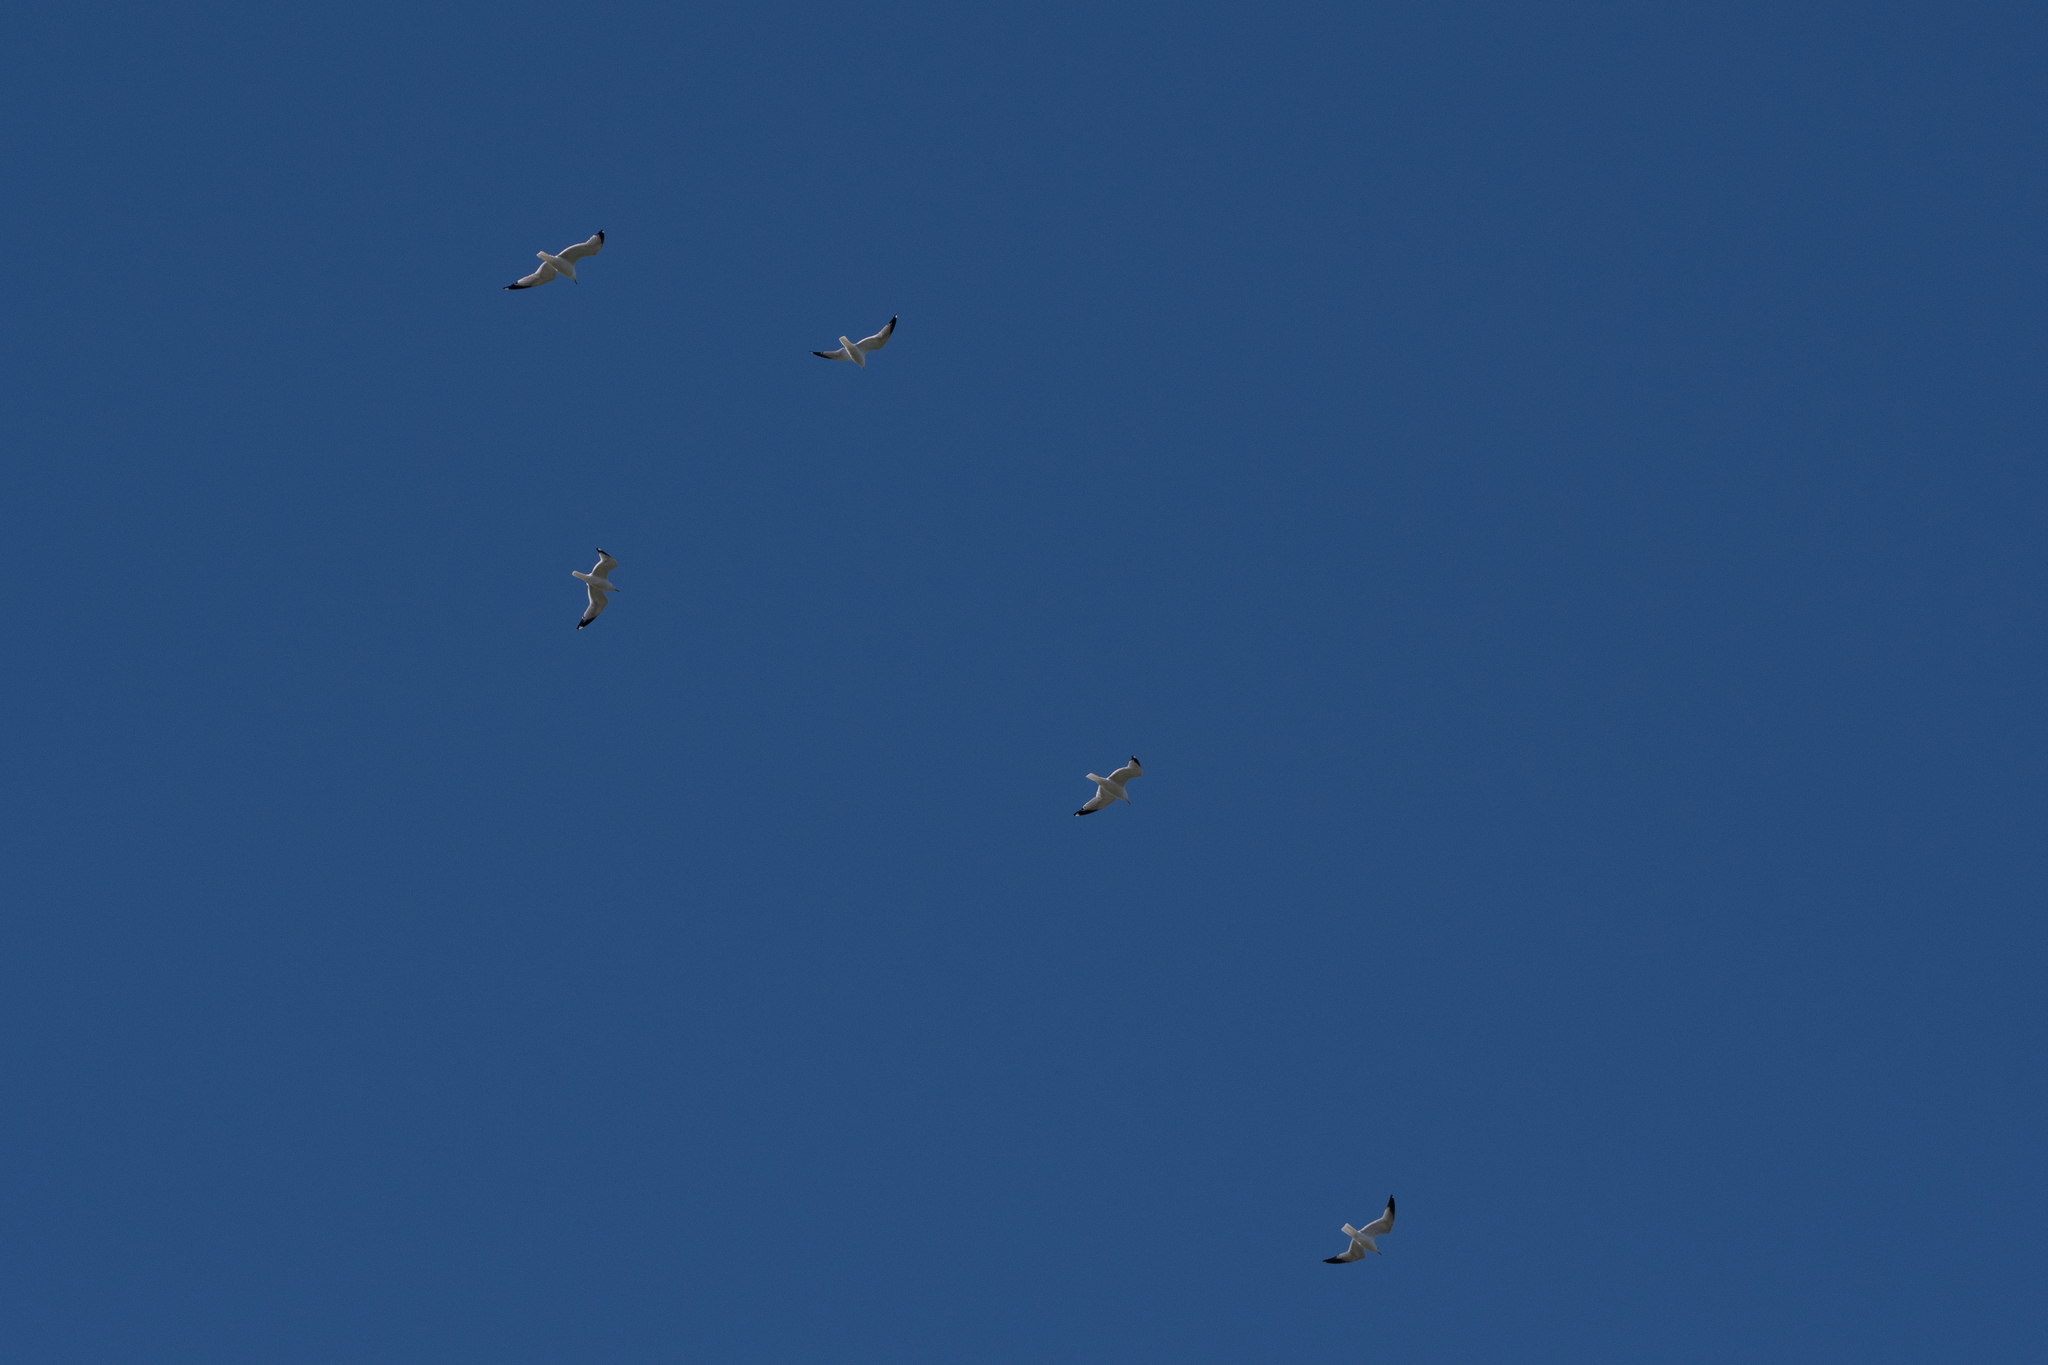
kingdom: Animalia
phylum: Chordata
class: Aves
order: Charadriiformes
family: Laridae
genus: Larus
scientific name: Larus delawarensis
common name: Ring-billed gull
